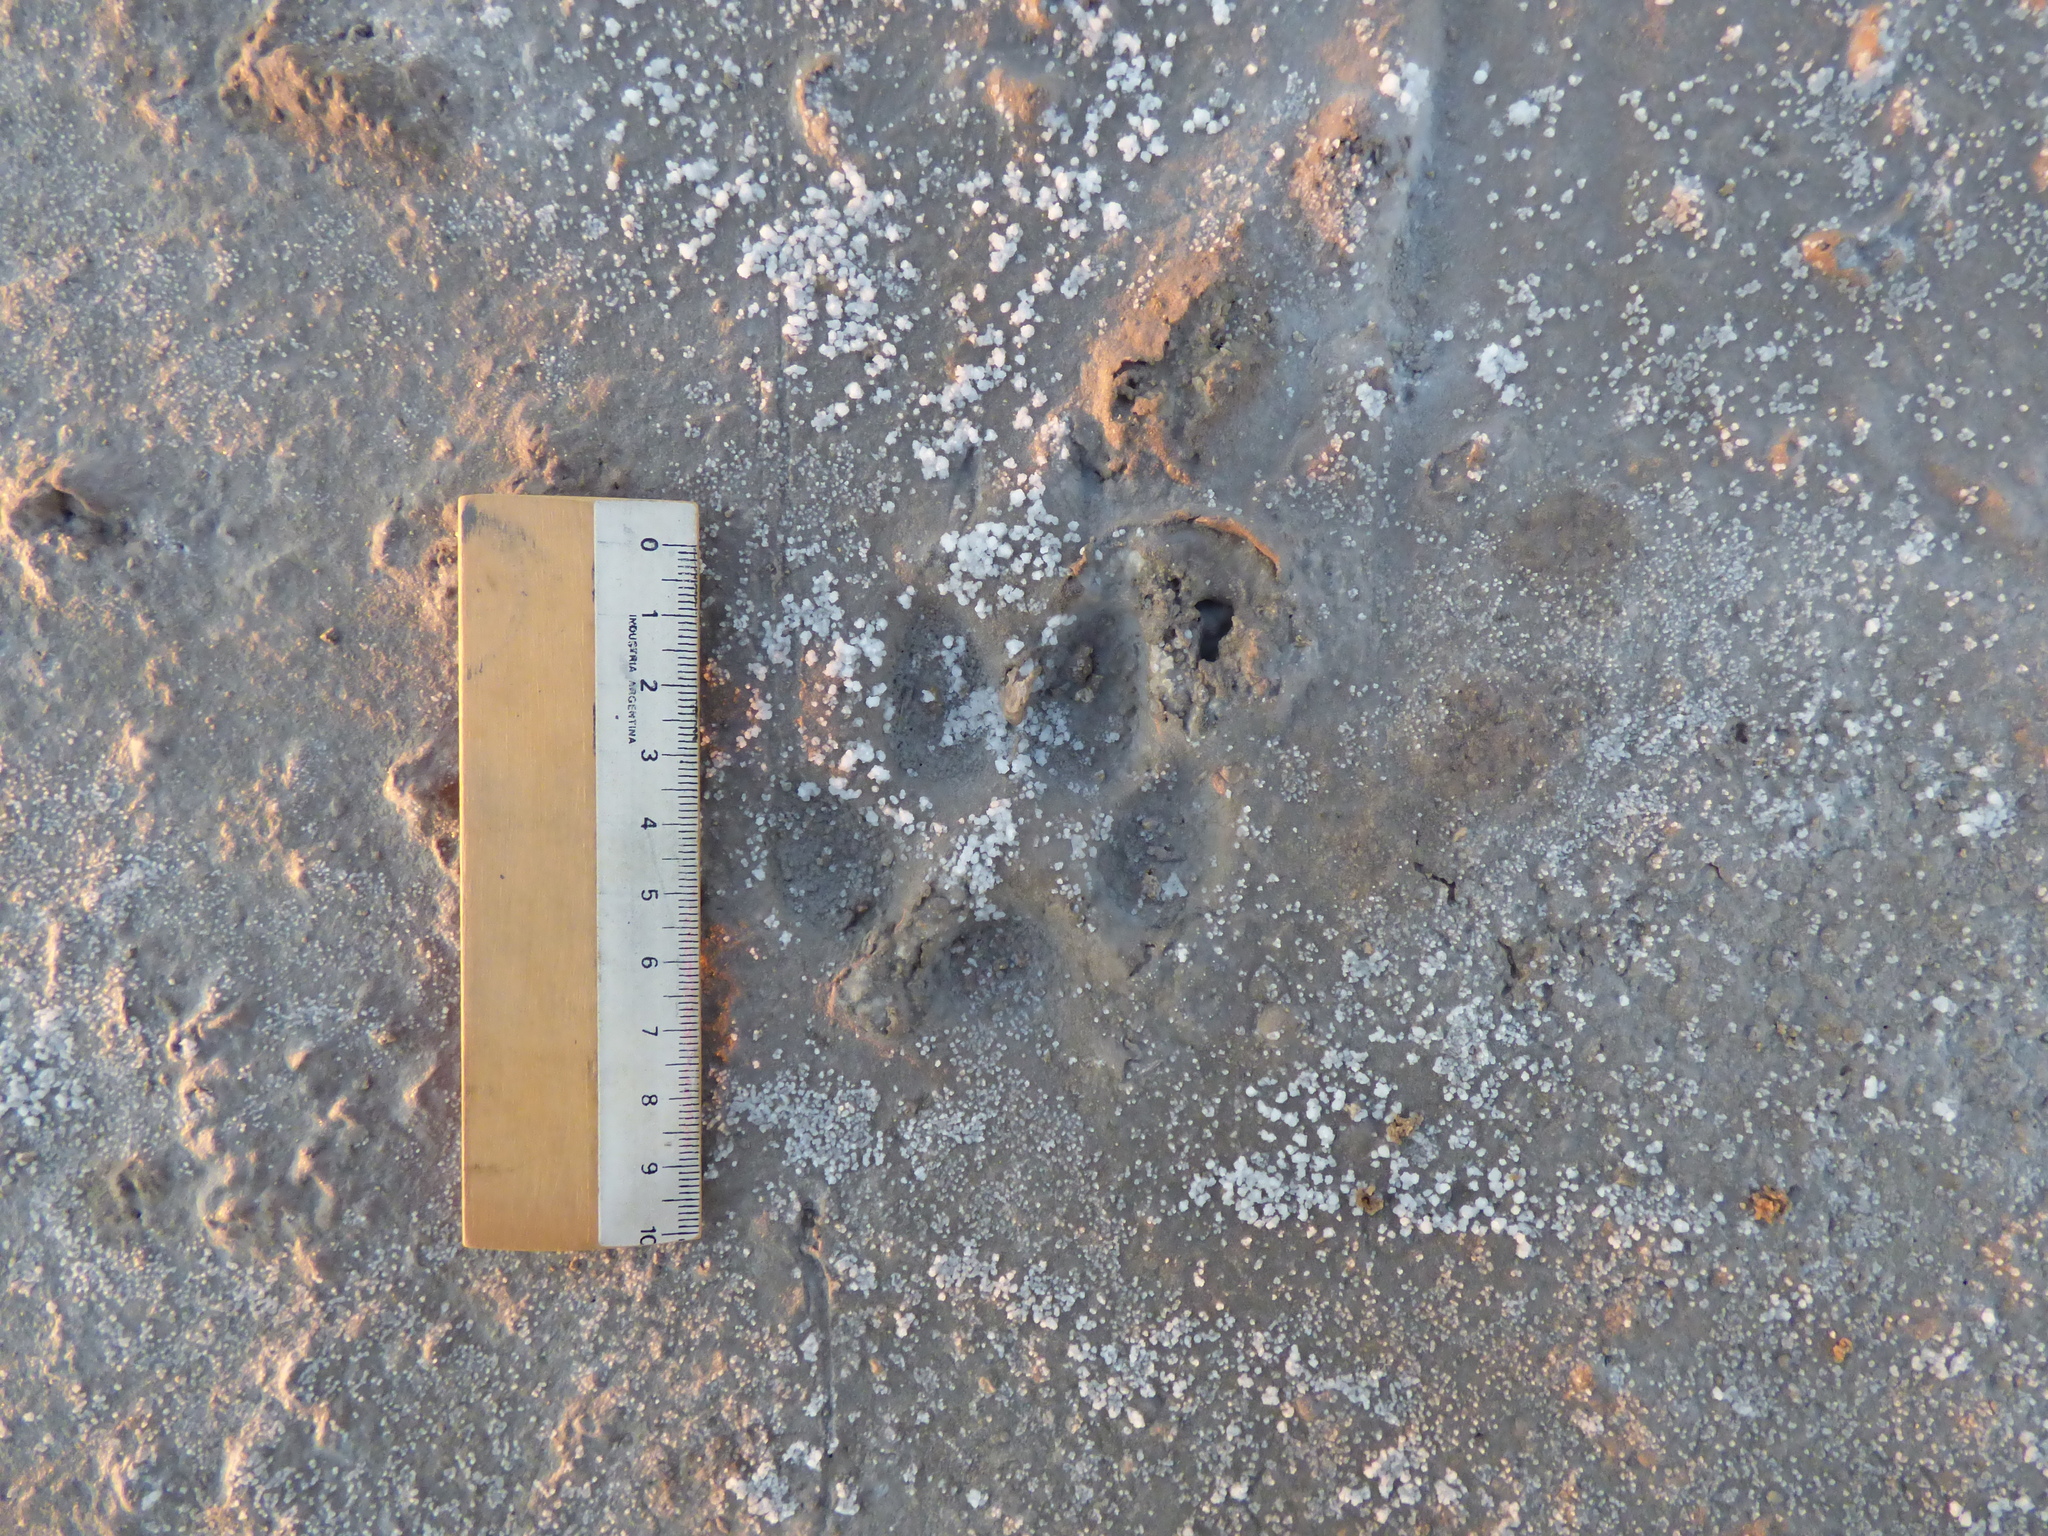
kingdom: Animalia
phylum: Chordata
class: Mammalia
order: Carnivora
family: Canidae
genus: Chrysocyon
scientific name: Chrysocyon brachyurus
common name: Maned wolf
